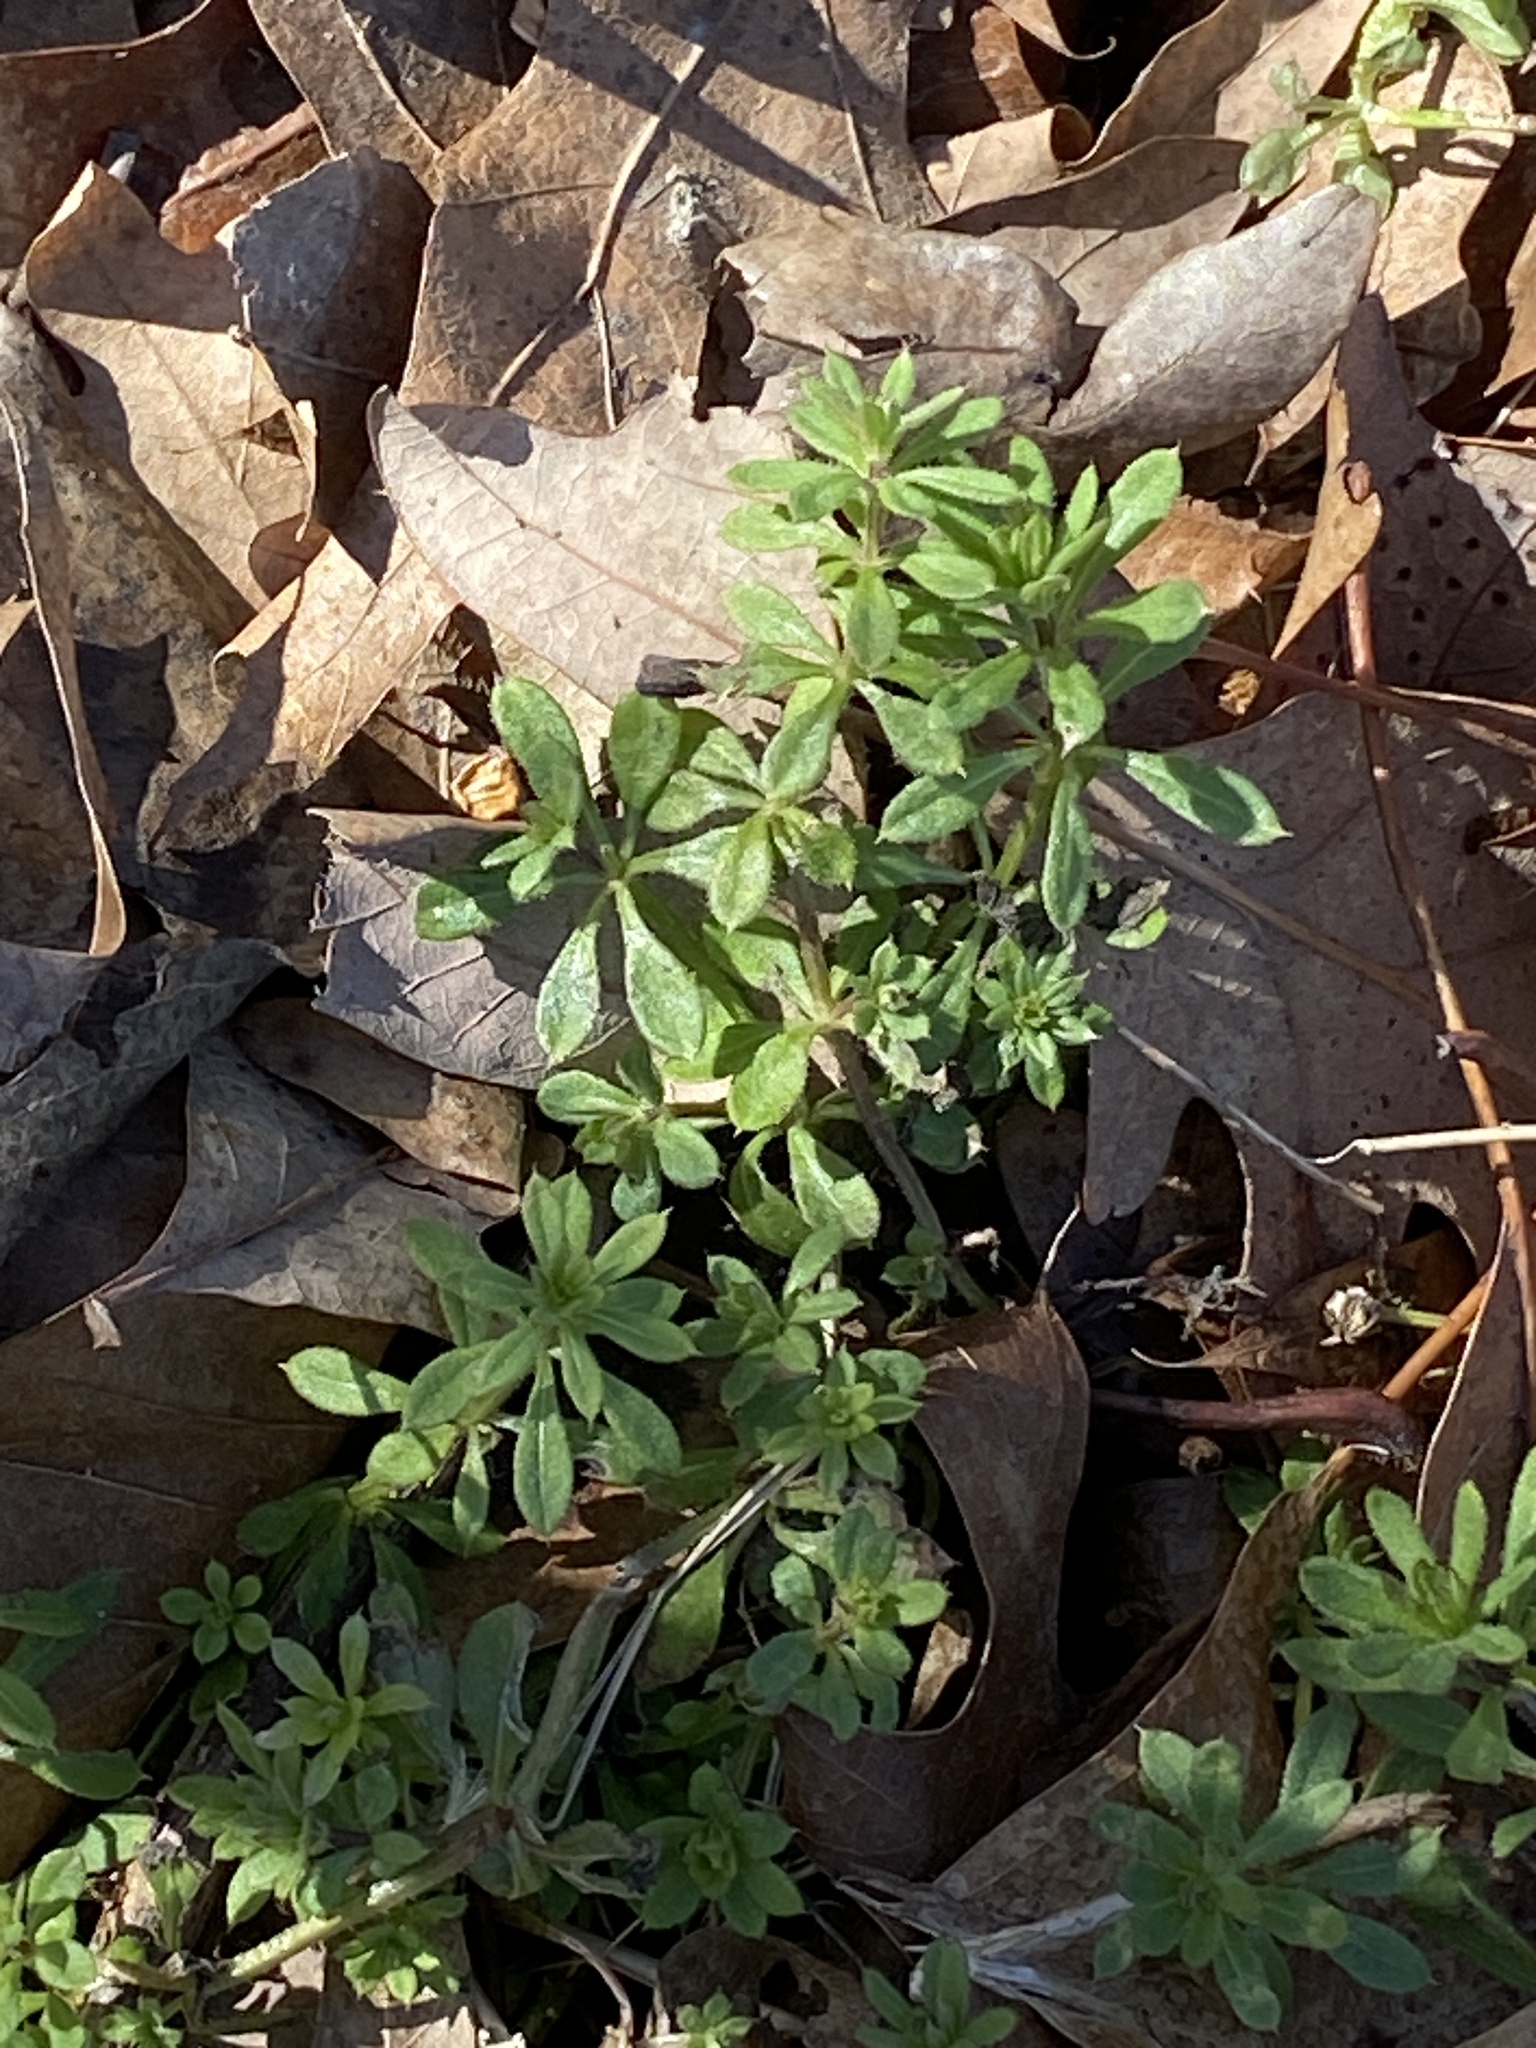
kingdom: Plantae
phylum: Tracheophyta
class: Magnoliopsida
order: Gentianales
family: Rubiaceae
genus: Galium
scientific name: Galium aparine
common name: Cleavers
